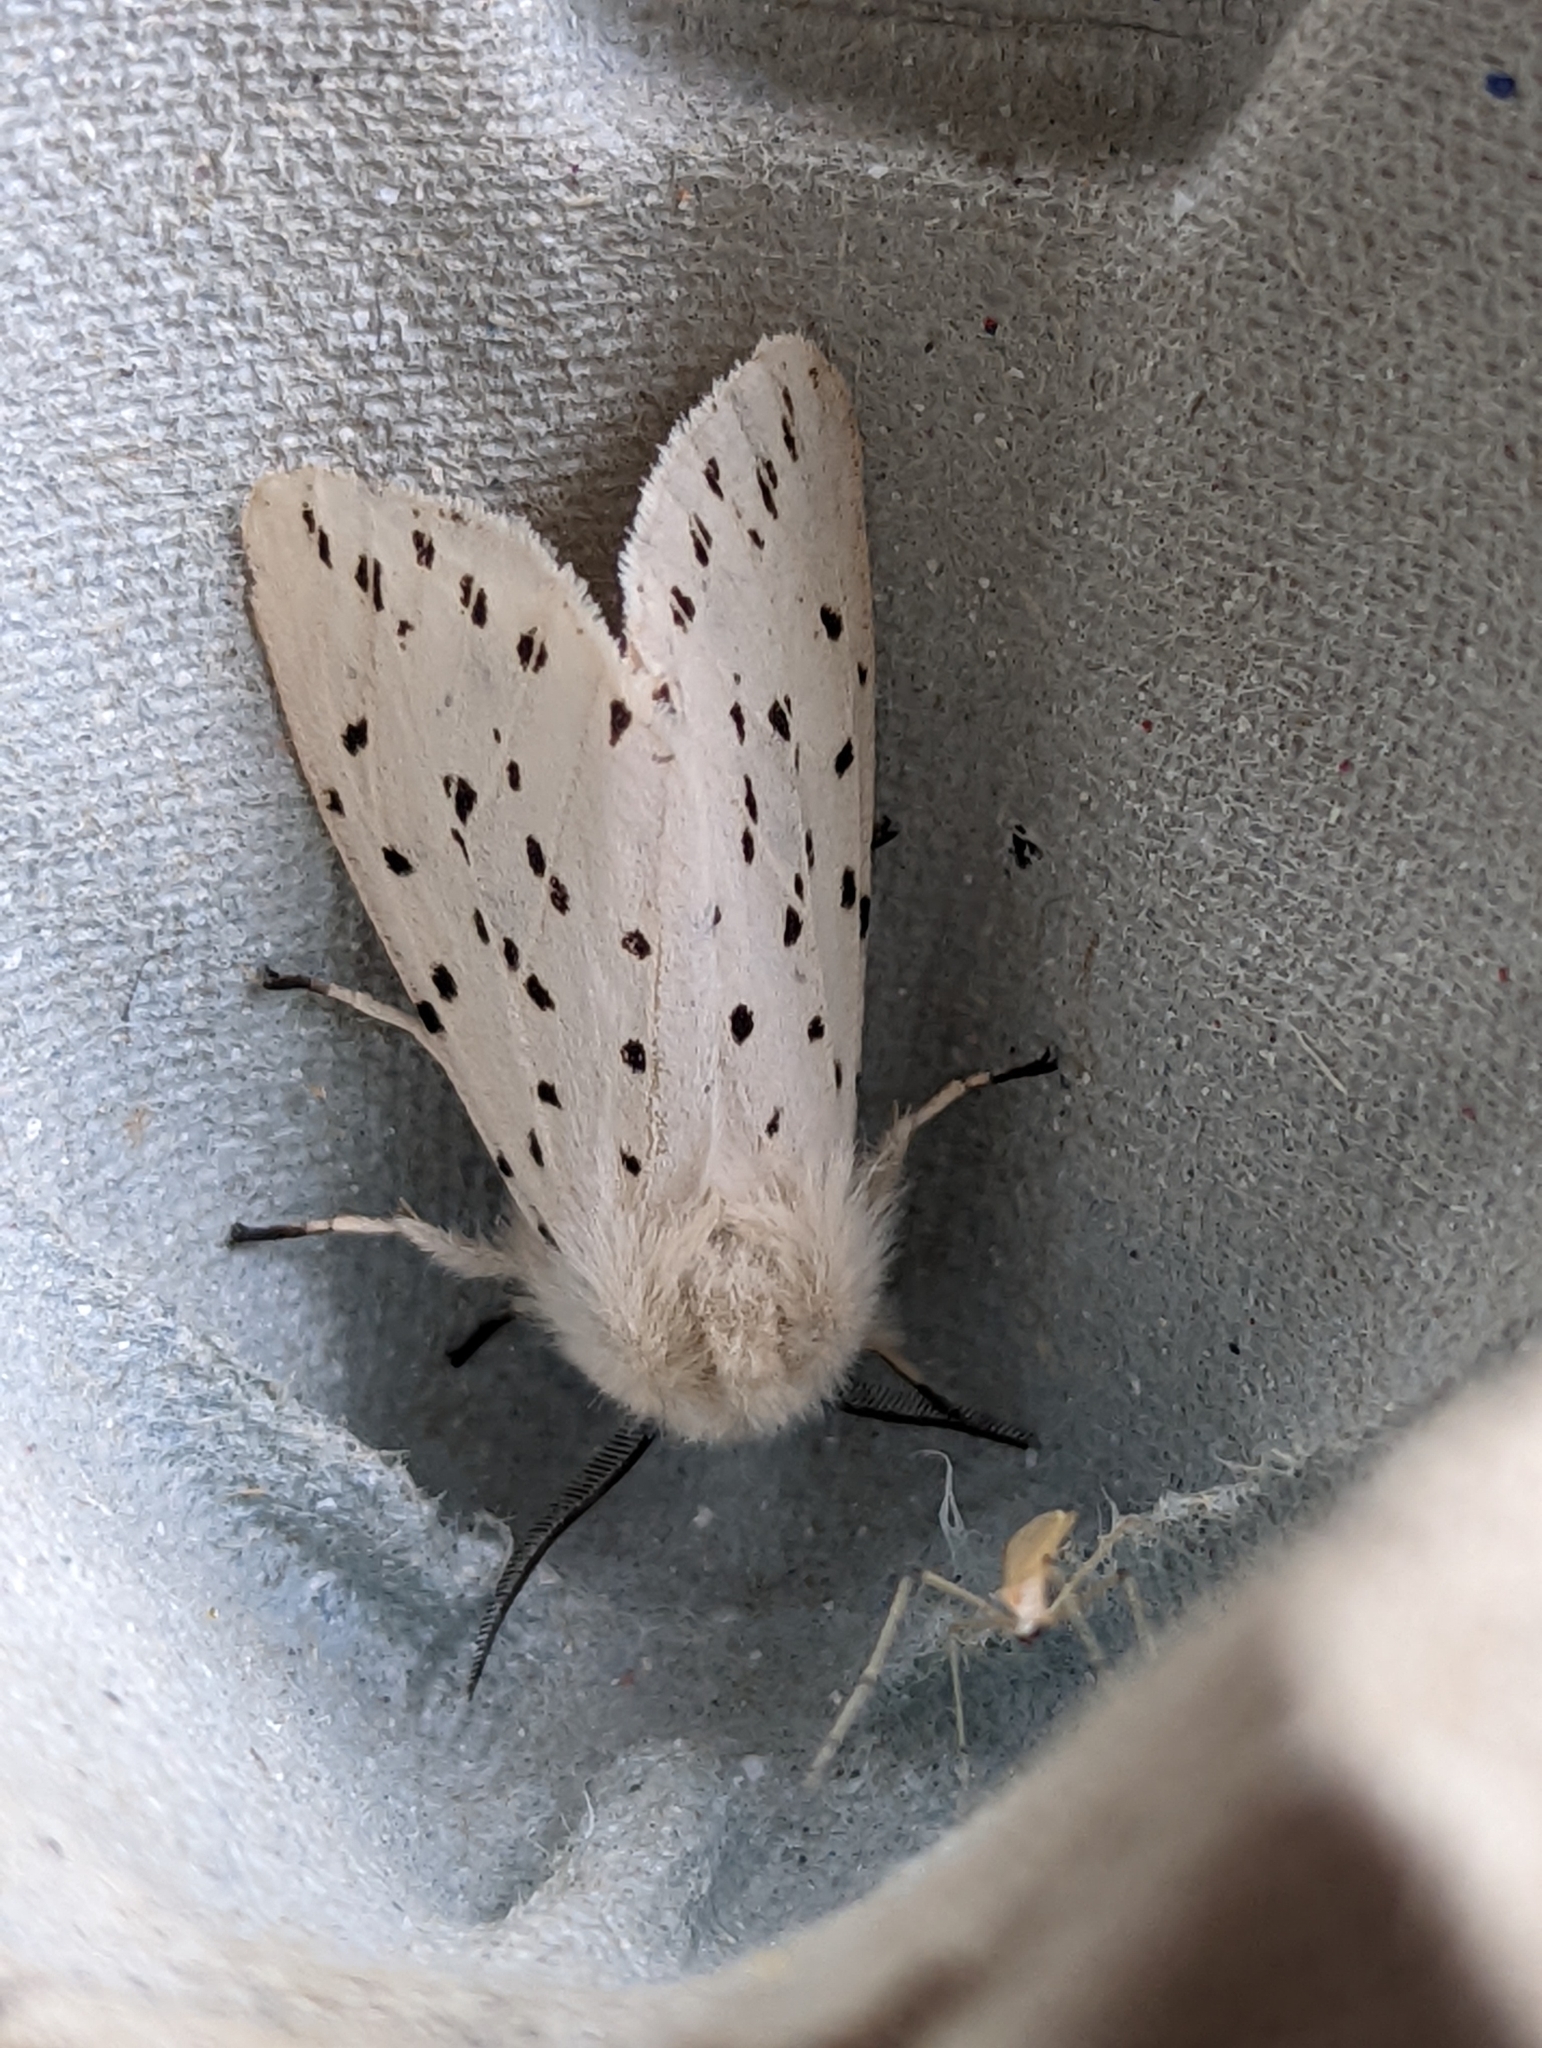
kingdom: Animalia
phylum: Arthropoda
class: Insecta
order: Lepidoptera
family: Erebidae
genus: Spilosoma
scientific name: Spilosoma lubricipeda
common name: White ermine
